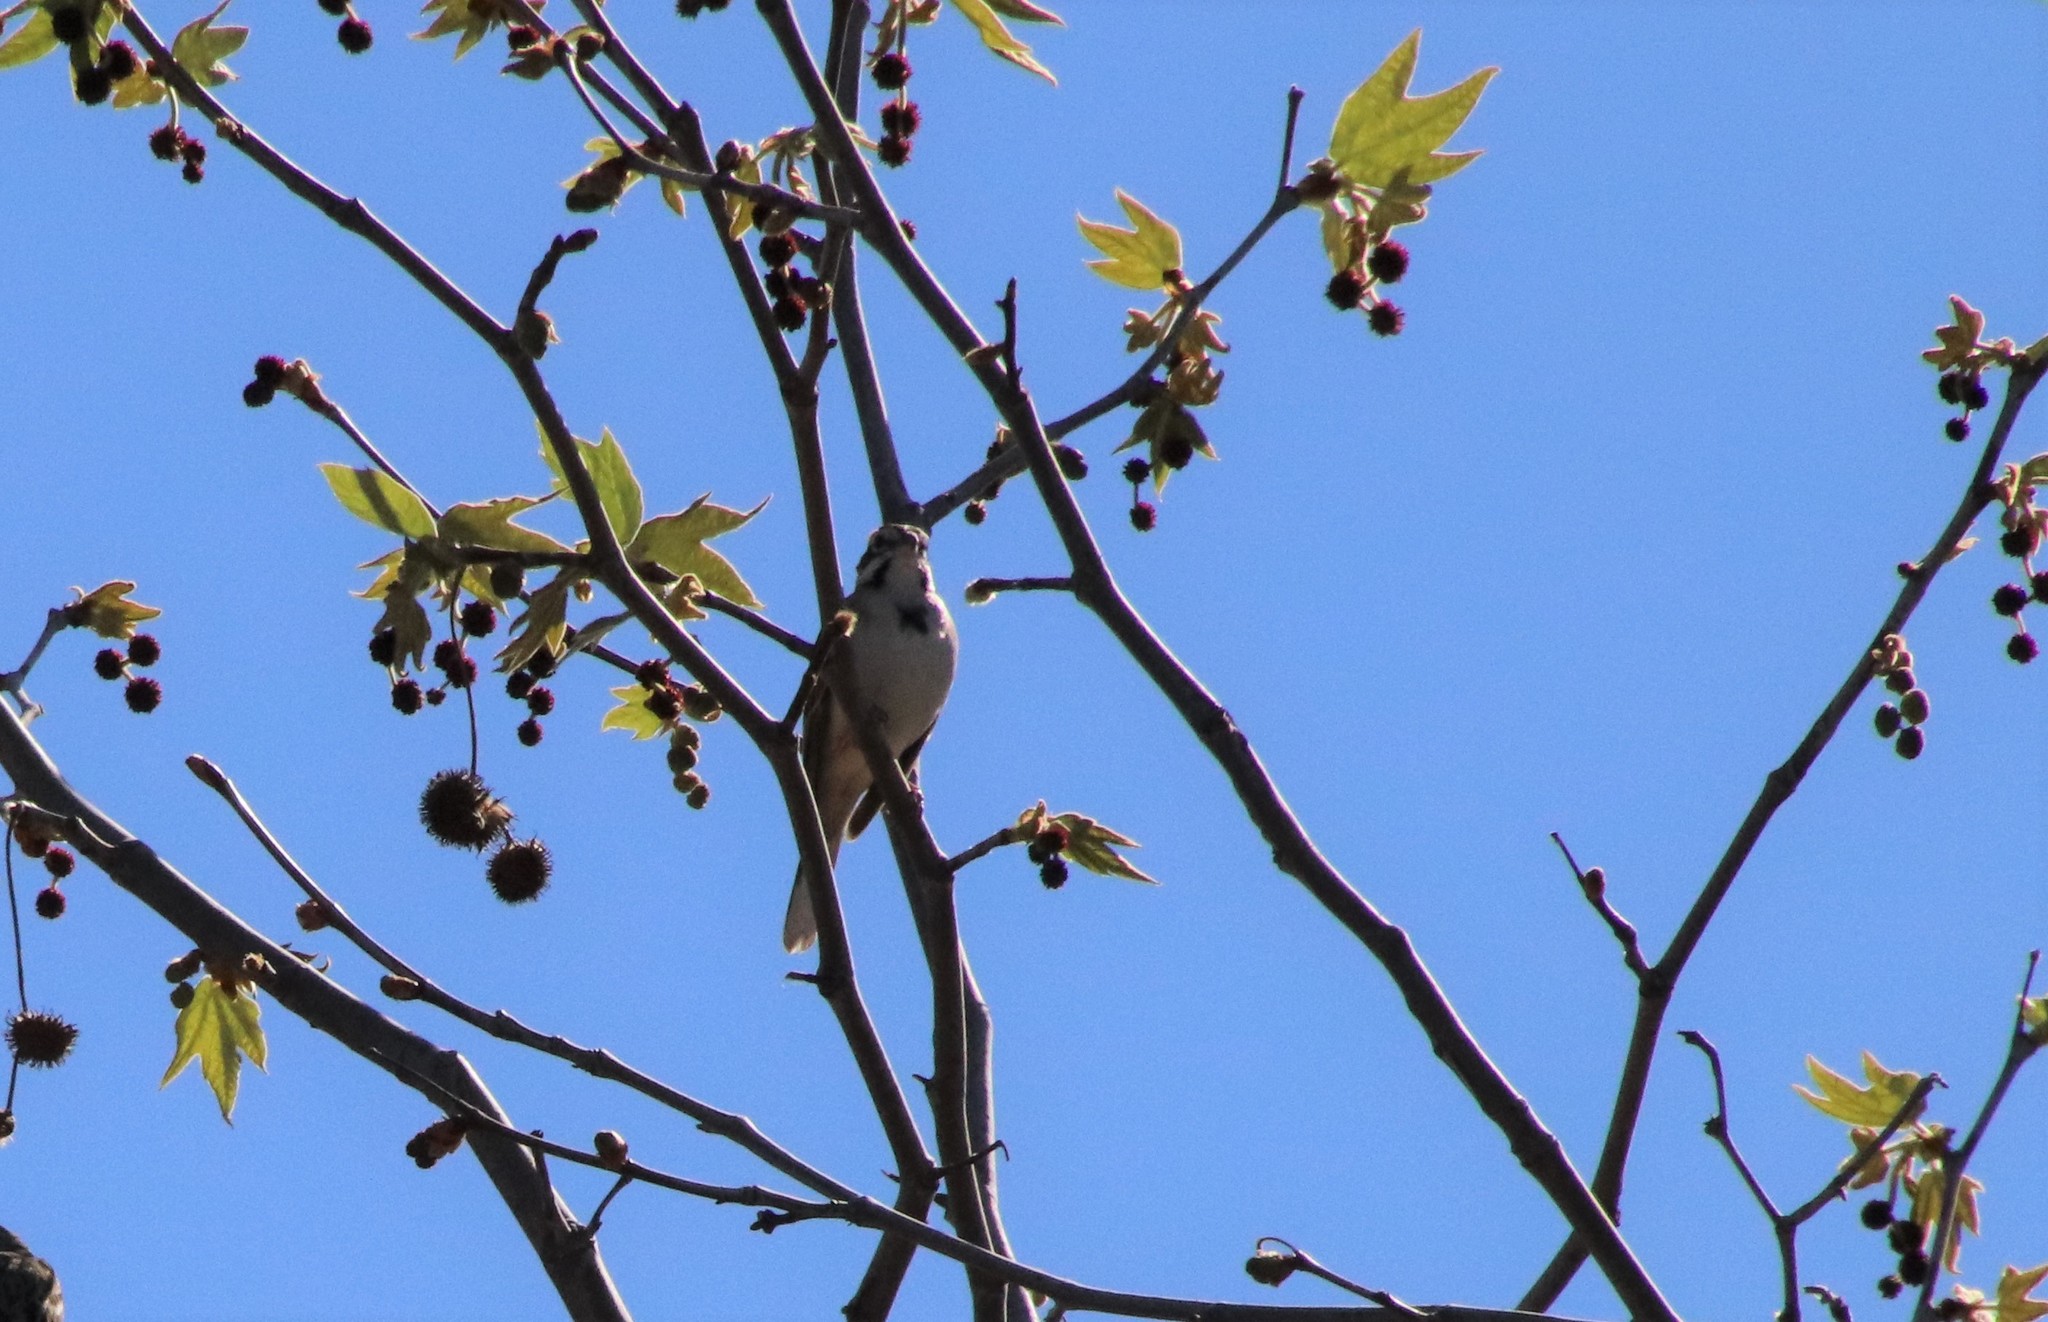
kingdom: Animalia
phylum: Chordata
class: Aves
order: Passeriformes
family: Passerellidae
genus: Chondestes
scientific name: Chondestes grammacus
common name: Lark sparrow
